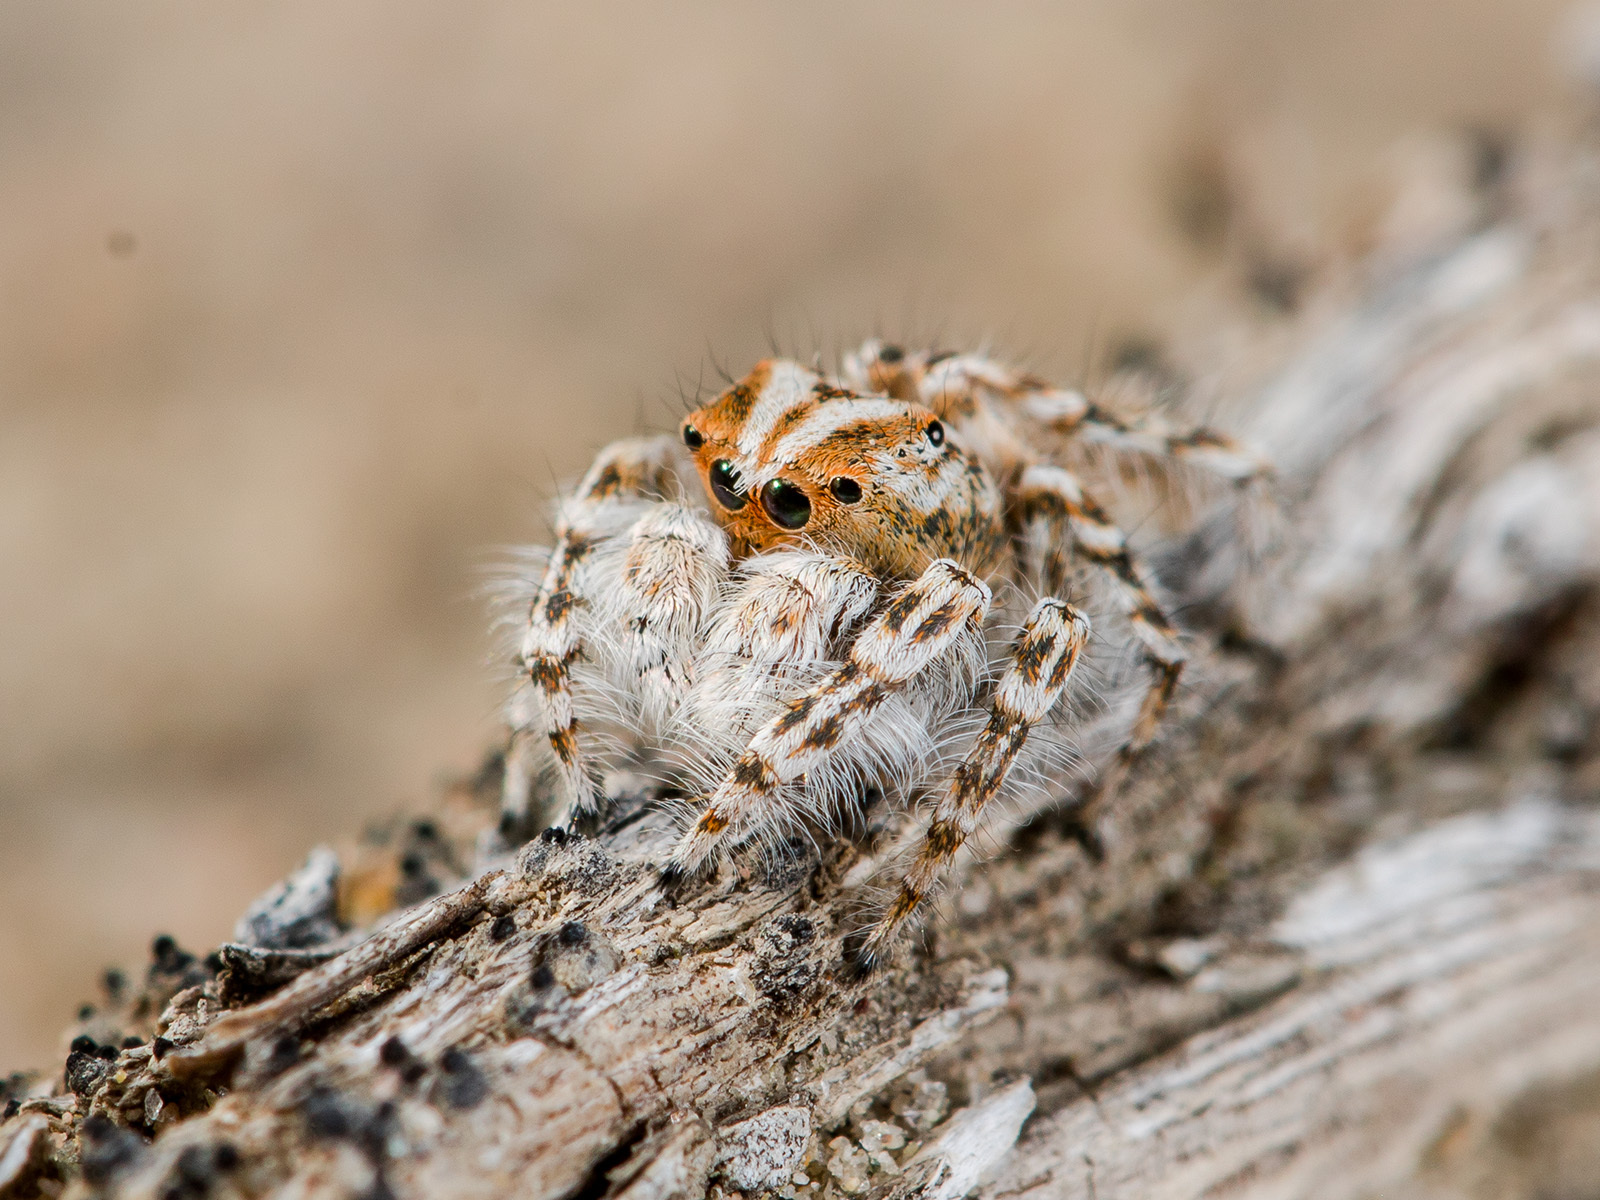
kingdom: Animalia
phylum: Arthropoda
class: Arachnida
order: Araneae
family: Salticidae
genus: Yllenus
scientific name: Yllenus uiguricus
